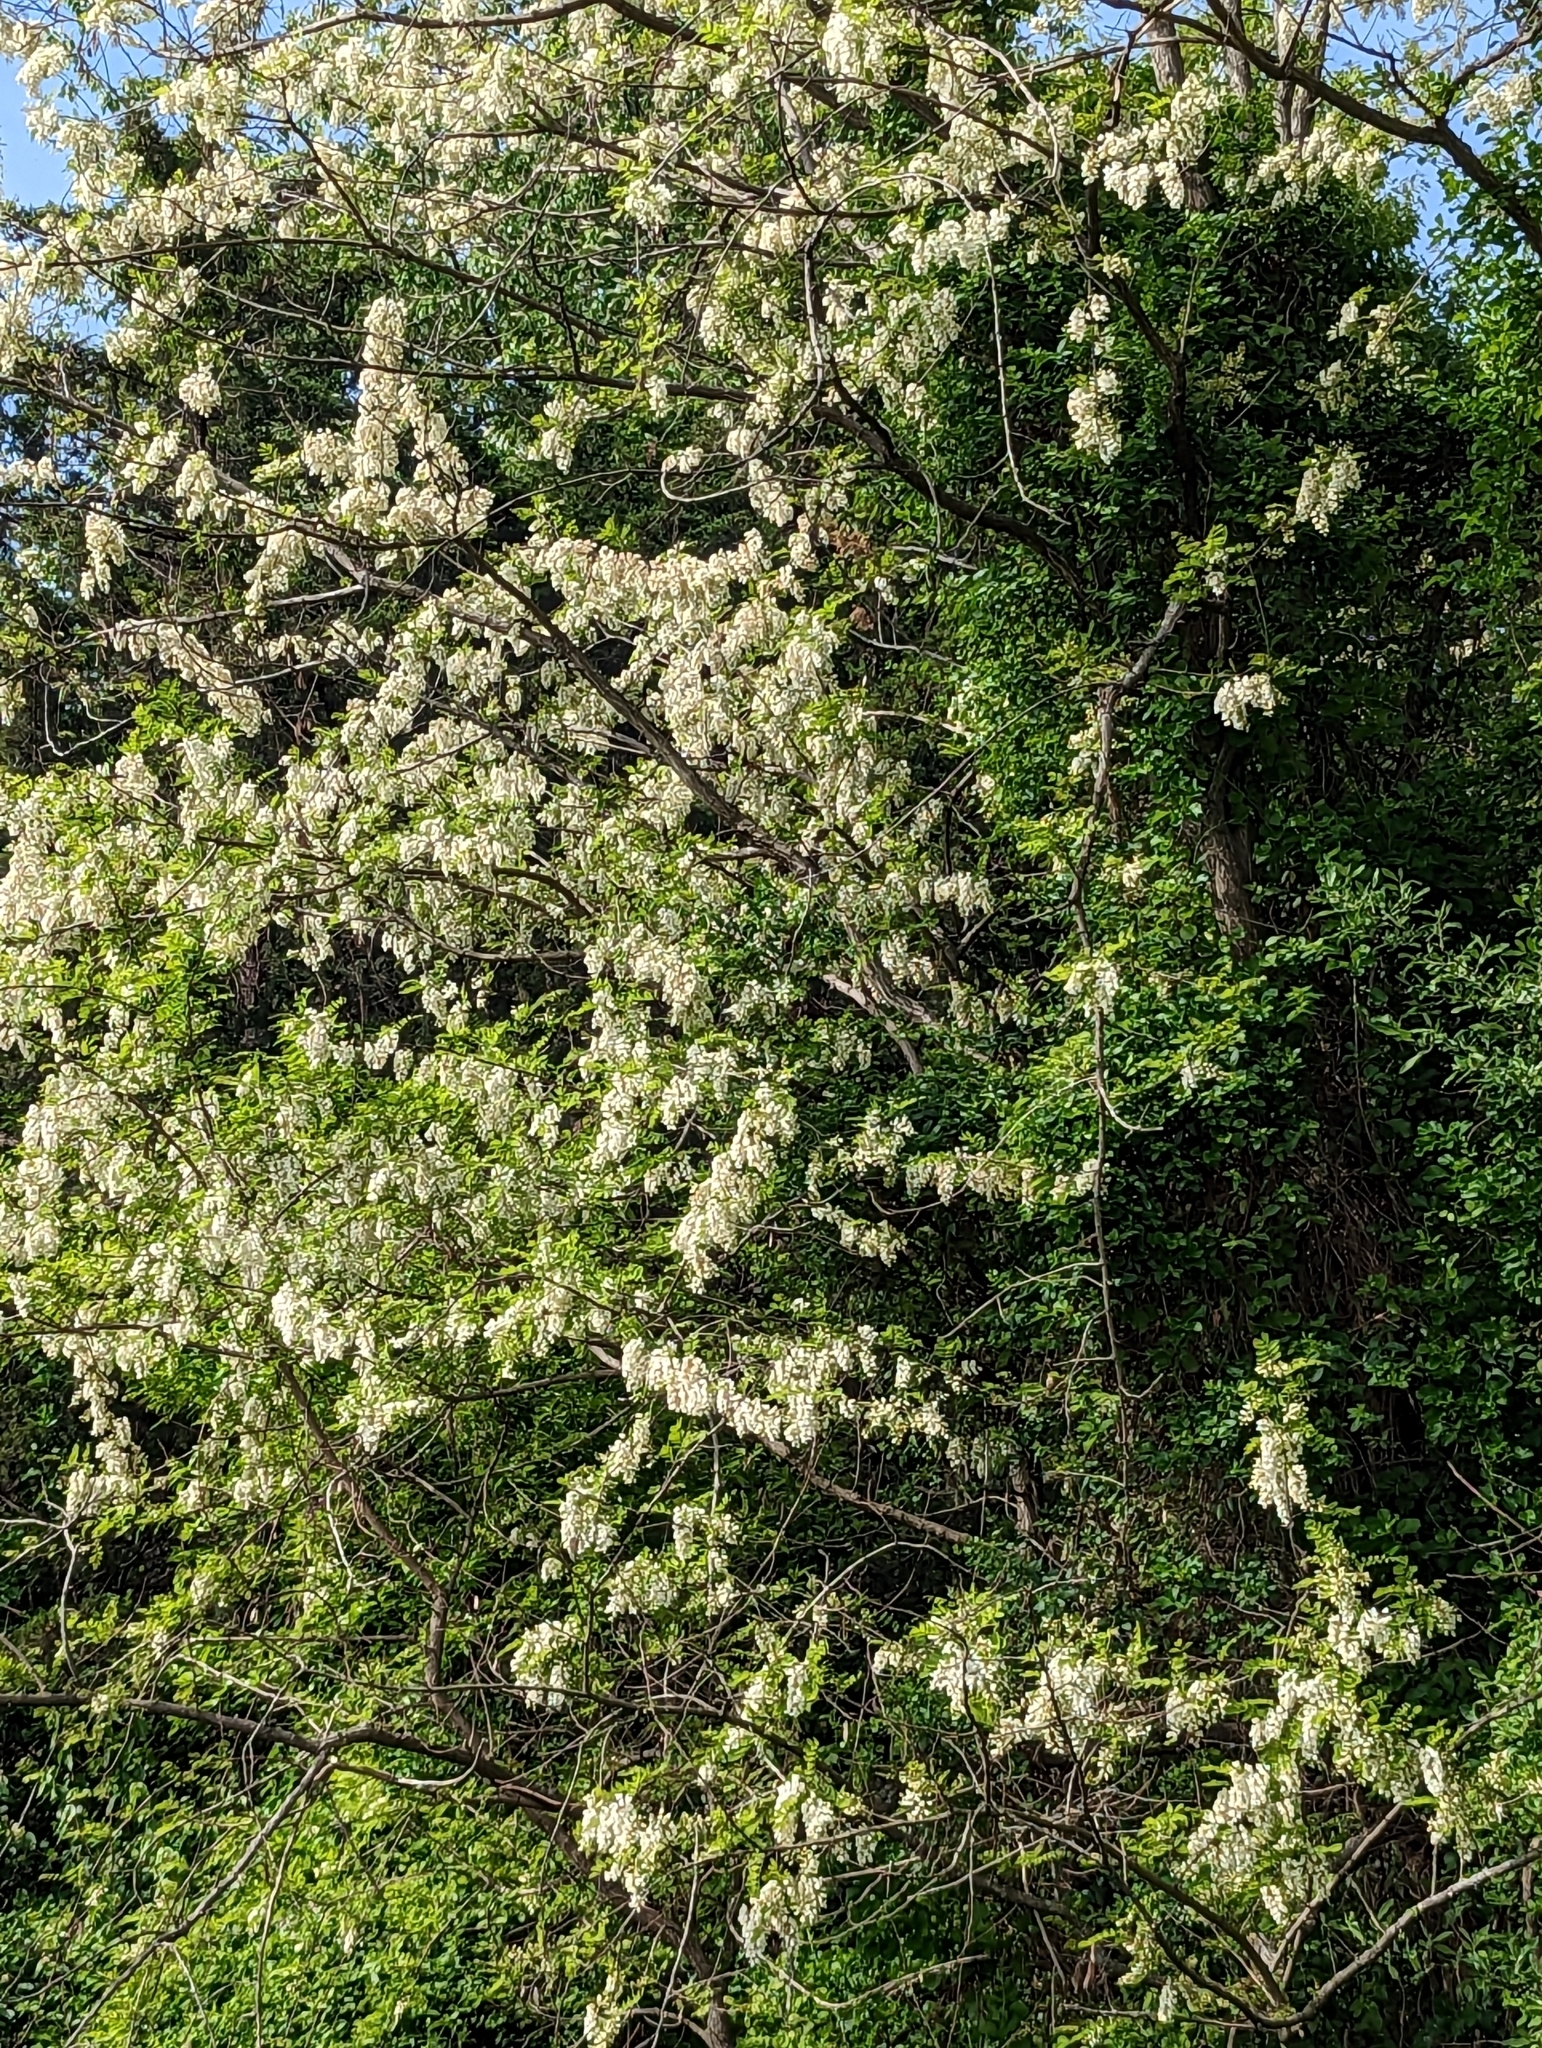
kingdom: Plantae
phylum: Tracheophyta
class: Magnoliopsida
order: Fabales
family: Fabaceae
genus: Robinia
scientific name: Robinia pseudoacacia
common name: Black locust
